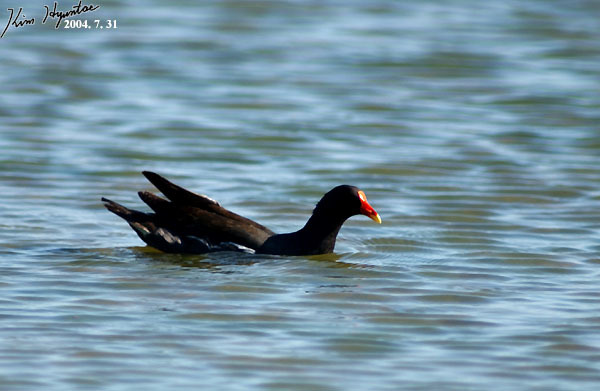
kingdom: Animalia
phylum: Chordata
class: Aves
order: Gruiformes
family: Rallidae
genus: Gallinula
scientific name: Gallinula chloropus
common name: Common moorhen
